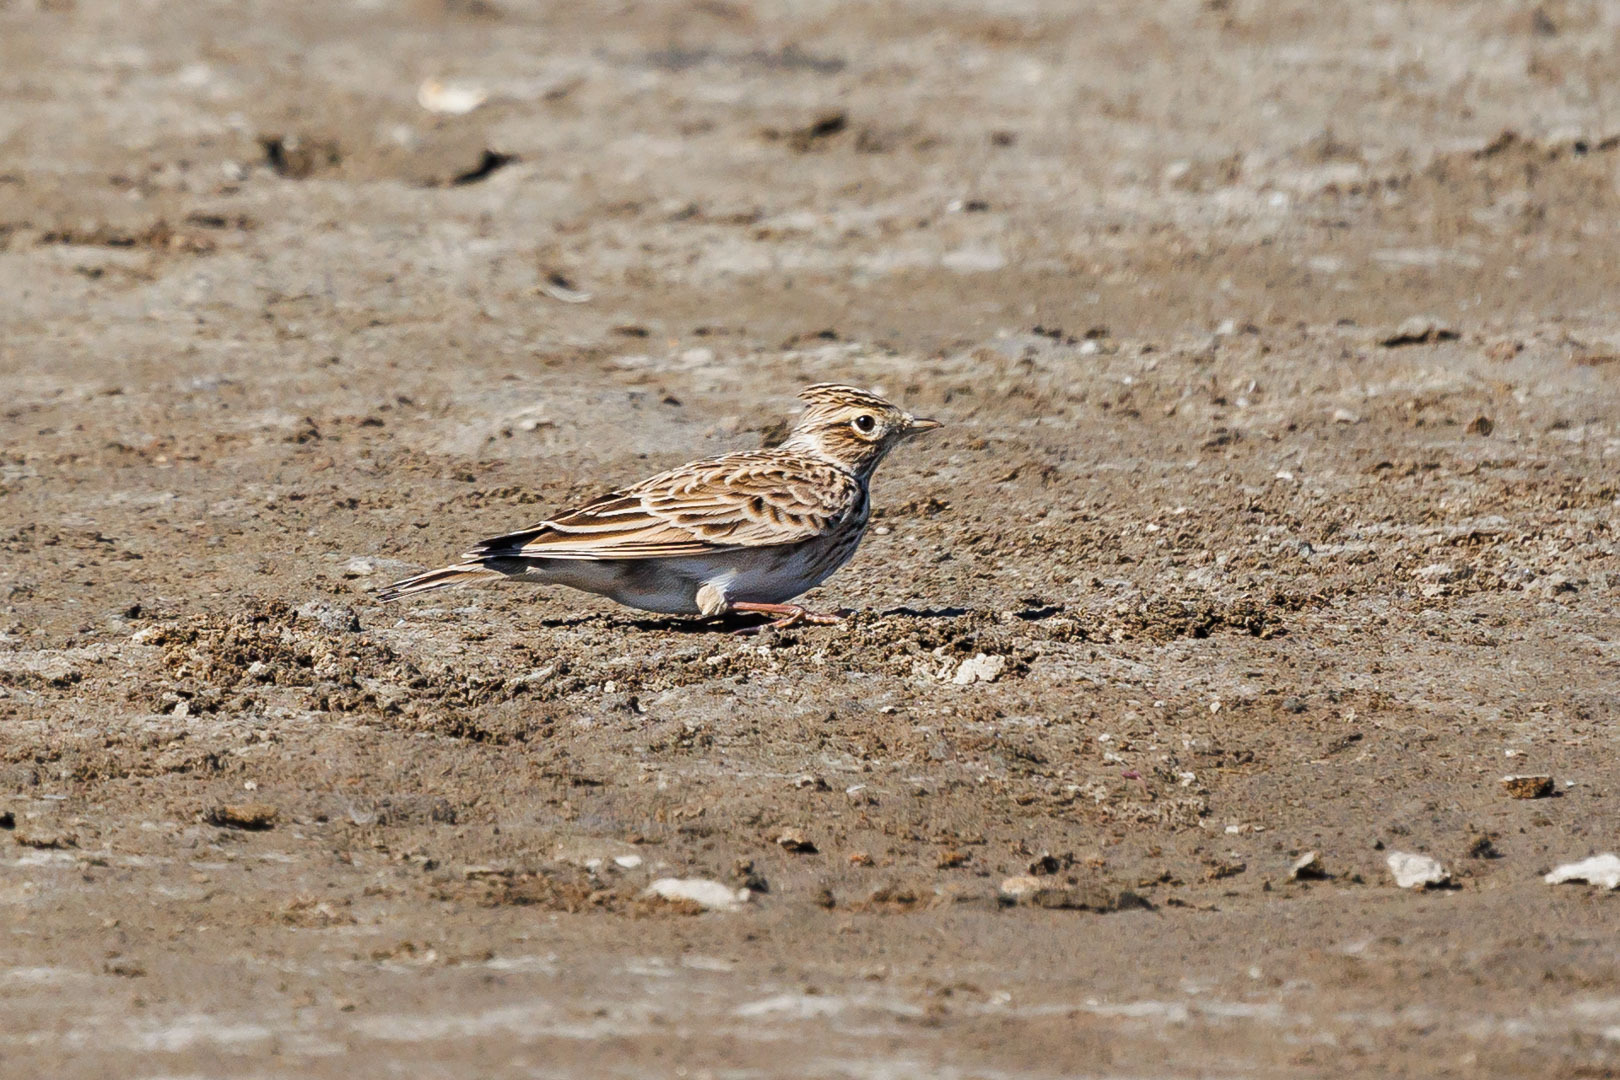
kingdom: Animalia
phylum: Chordata
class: Aves
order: Passeriformes
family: Alaudidae
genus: Alauda
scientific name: Alauda arvensis
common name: Eurasian skylark
